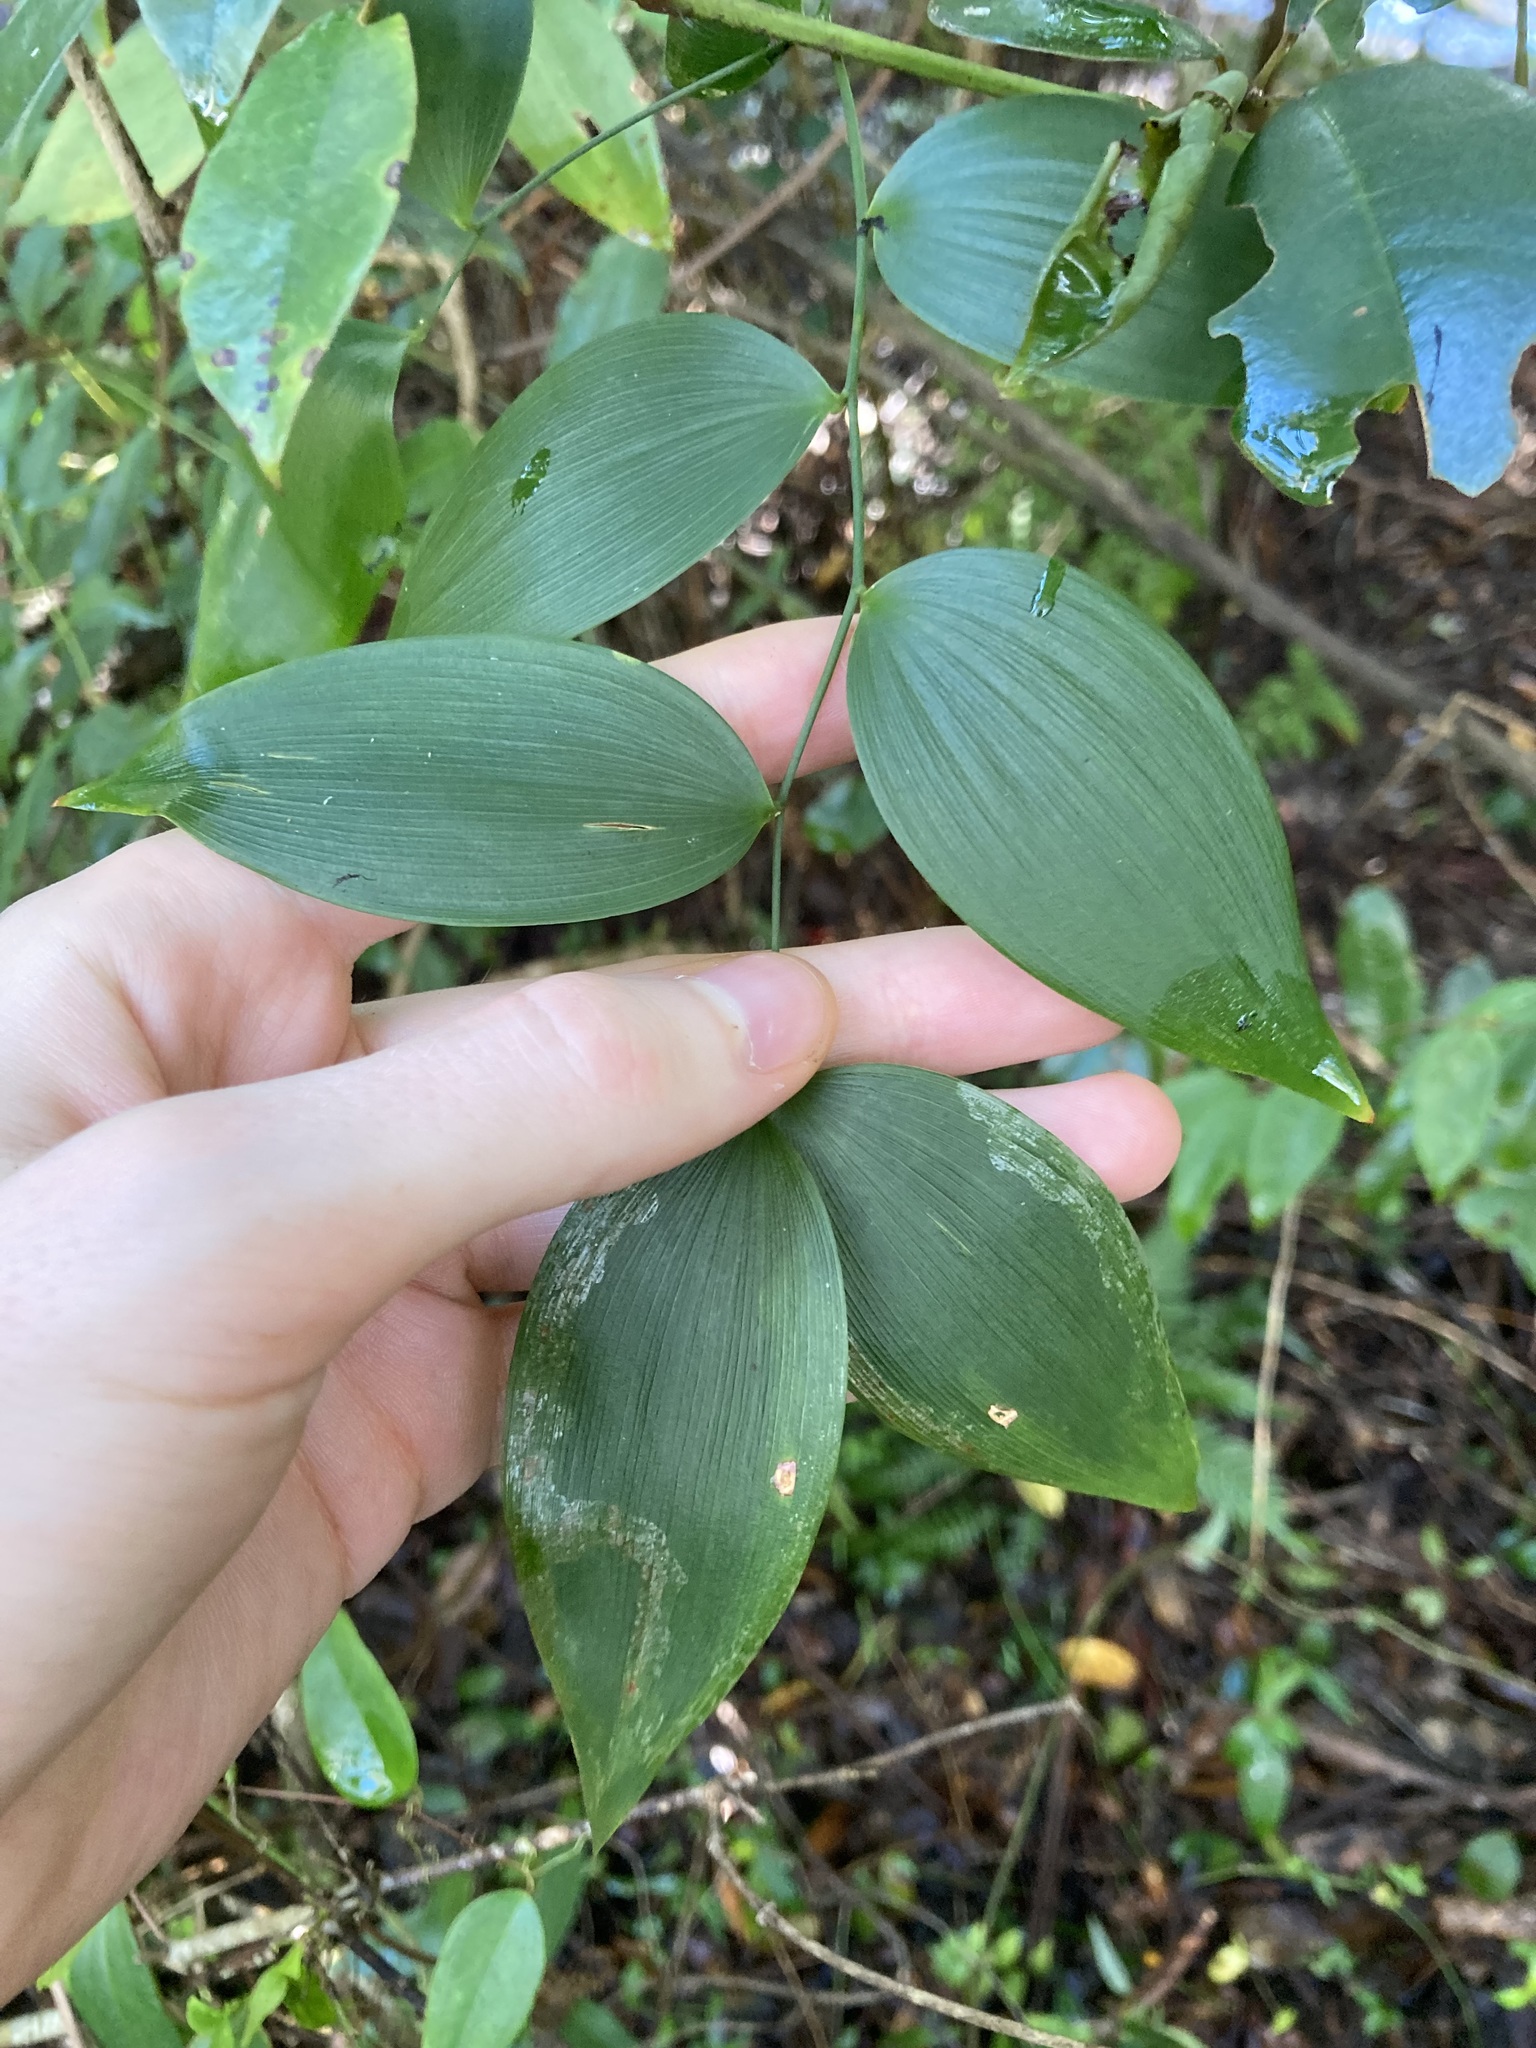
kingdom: Plantae
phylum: Tracheophyta
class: Liliopsida
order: Asparagales
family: Asparagaceae
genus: Eustrephus
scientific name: Eustrephus latifolius
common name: Orangevine
